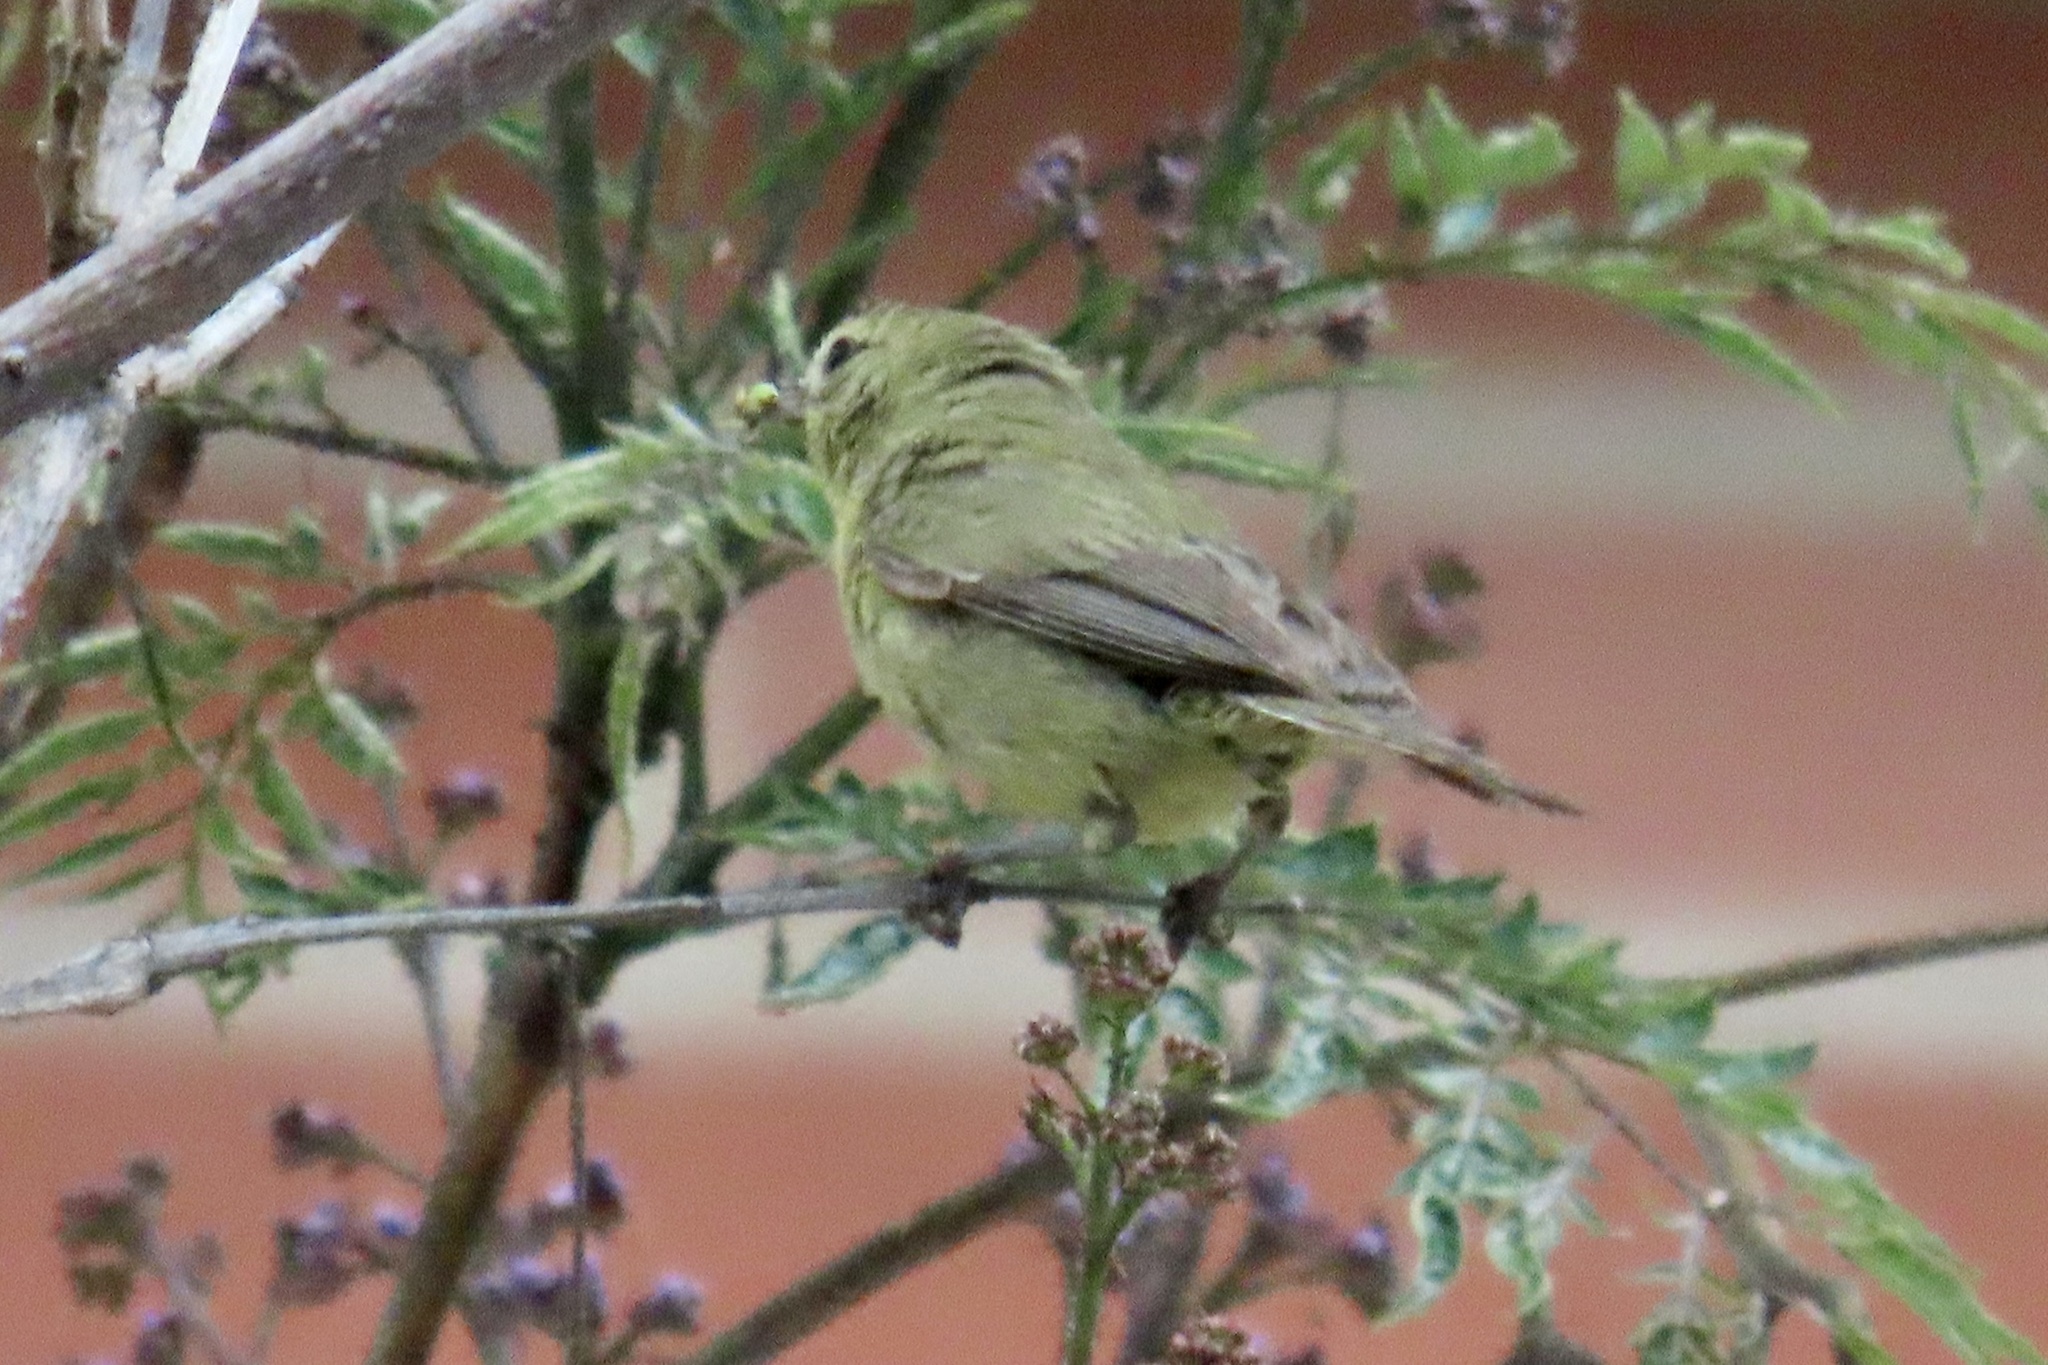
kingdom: Animalia
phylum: Chordata
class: Aves
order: Passeriformes
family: Parulidae
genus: Leiothlypis
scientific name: Leiothlypis celata
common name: Orange-crowned warbler
